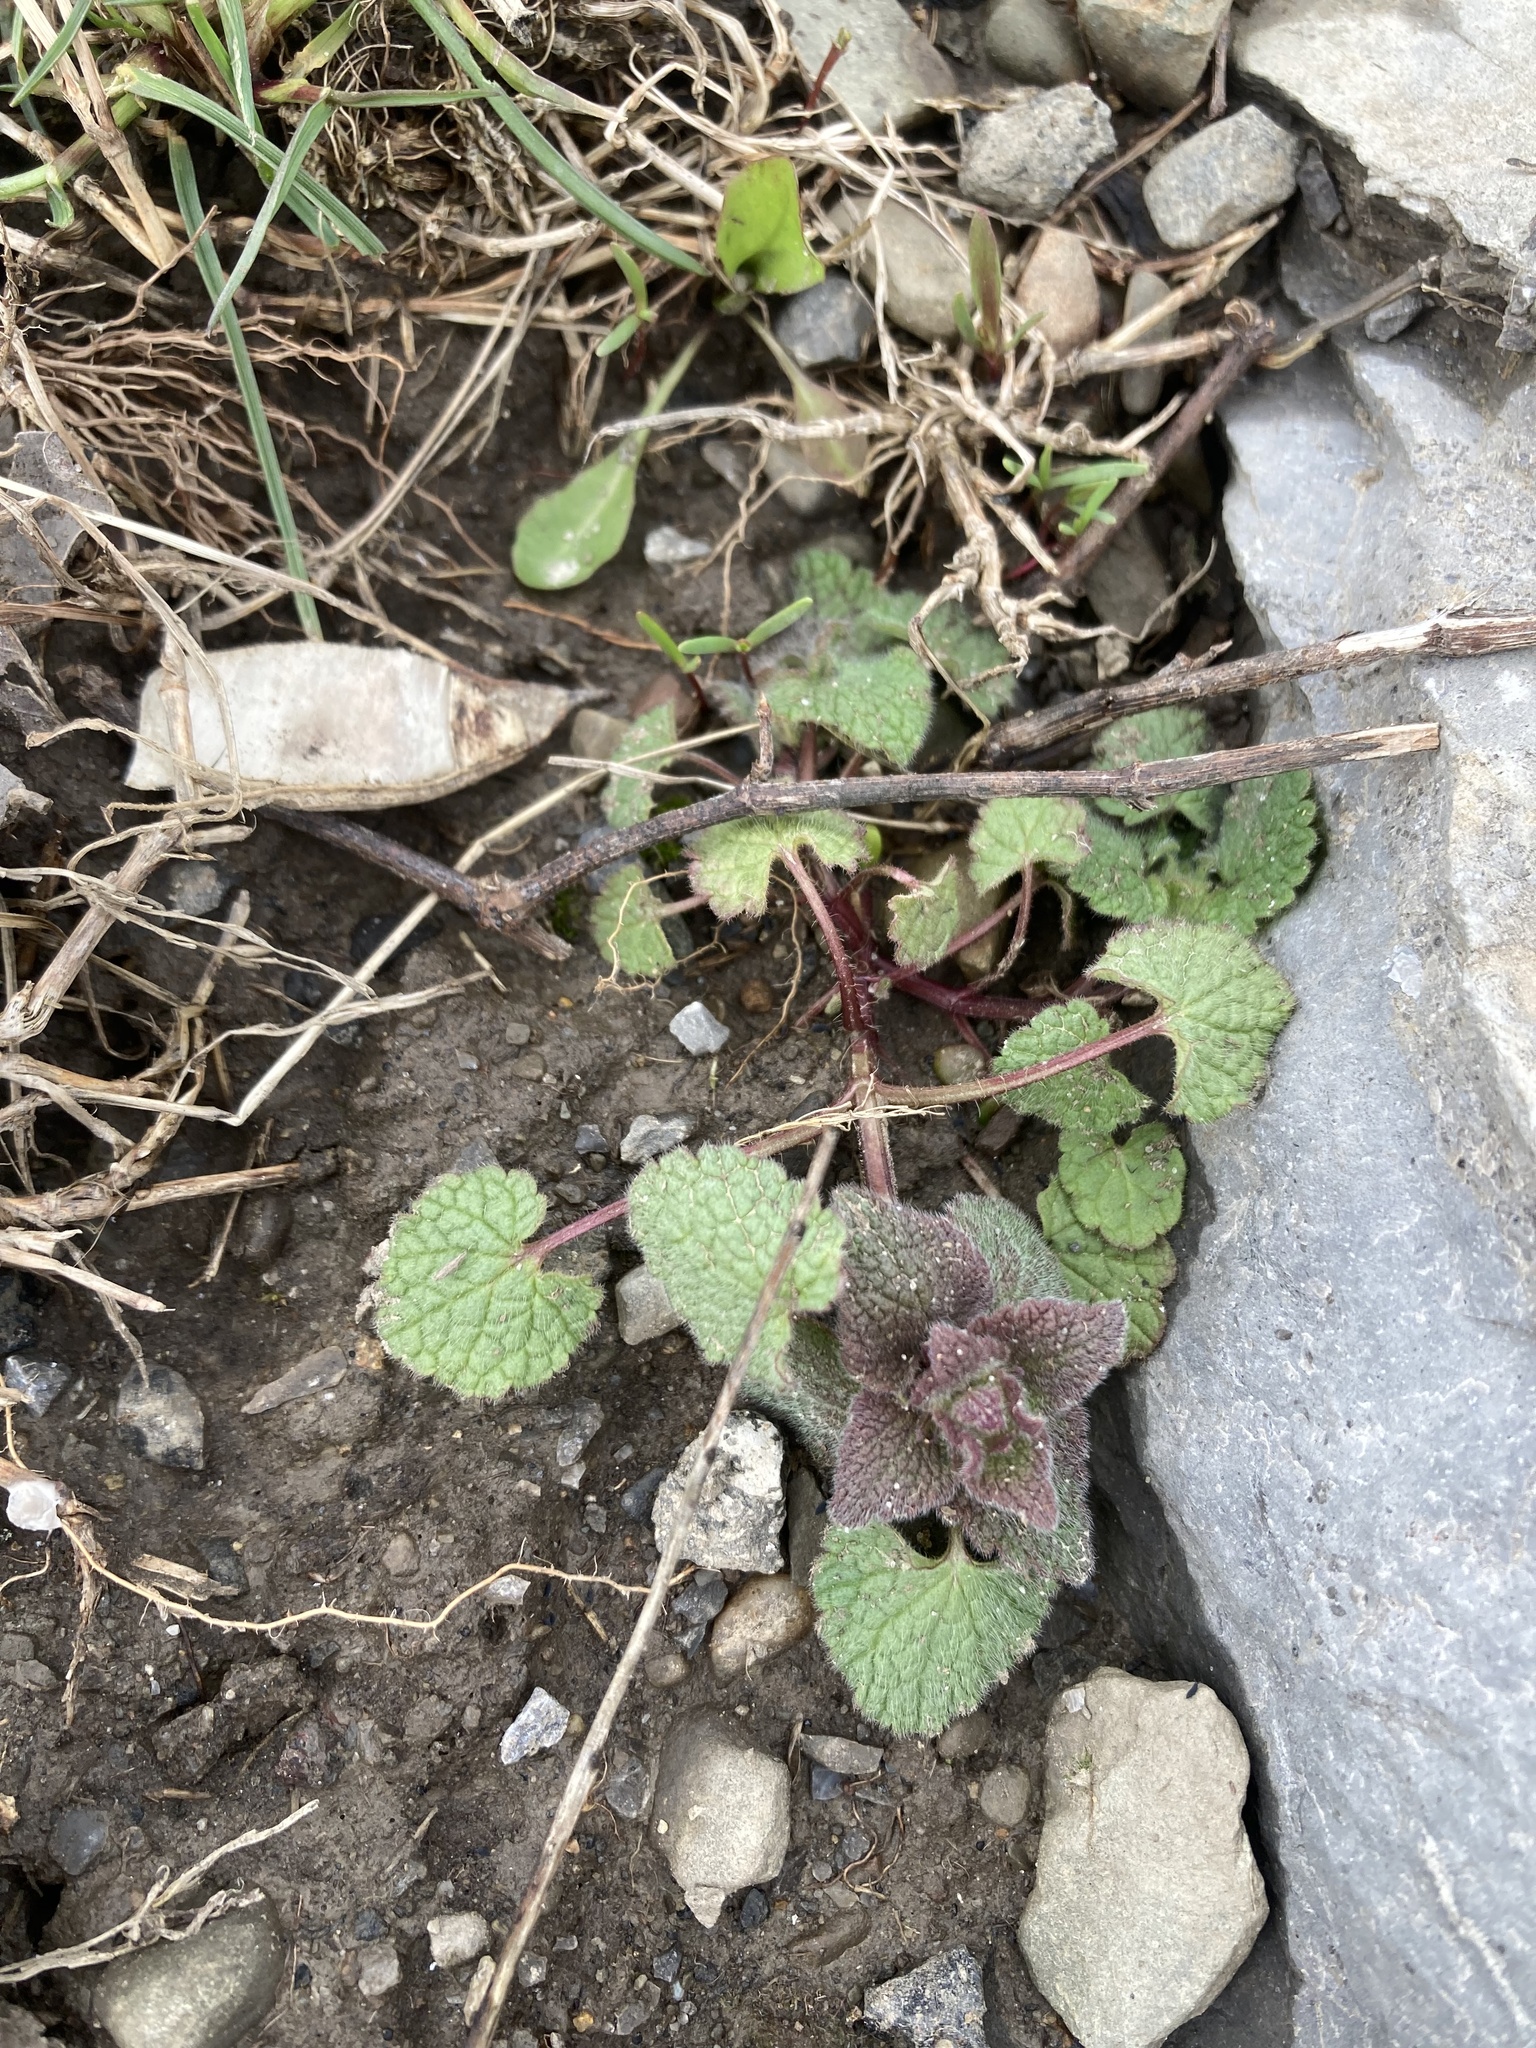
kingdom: Plantae
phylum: Tracheophyta
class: Magnoliopsida
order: Lamiales
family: Lamiaceae
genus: Lamium
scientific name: Lamium purpureum
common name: Red dead-nettle
